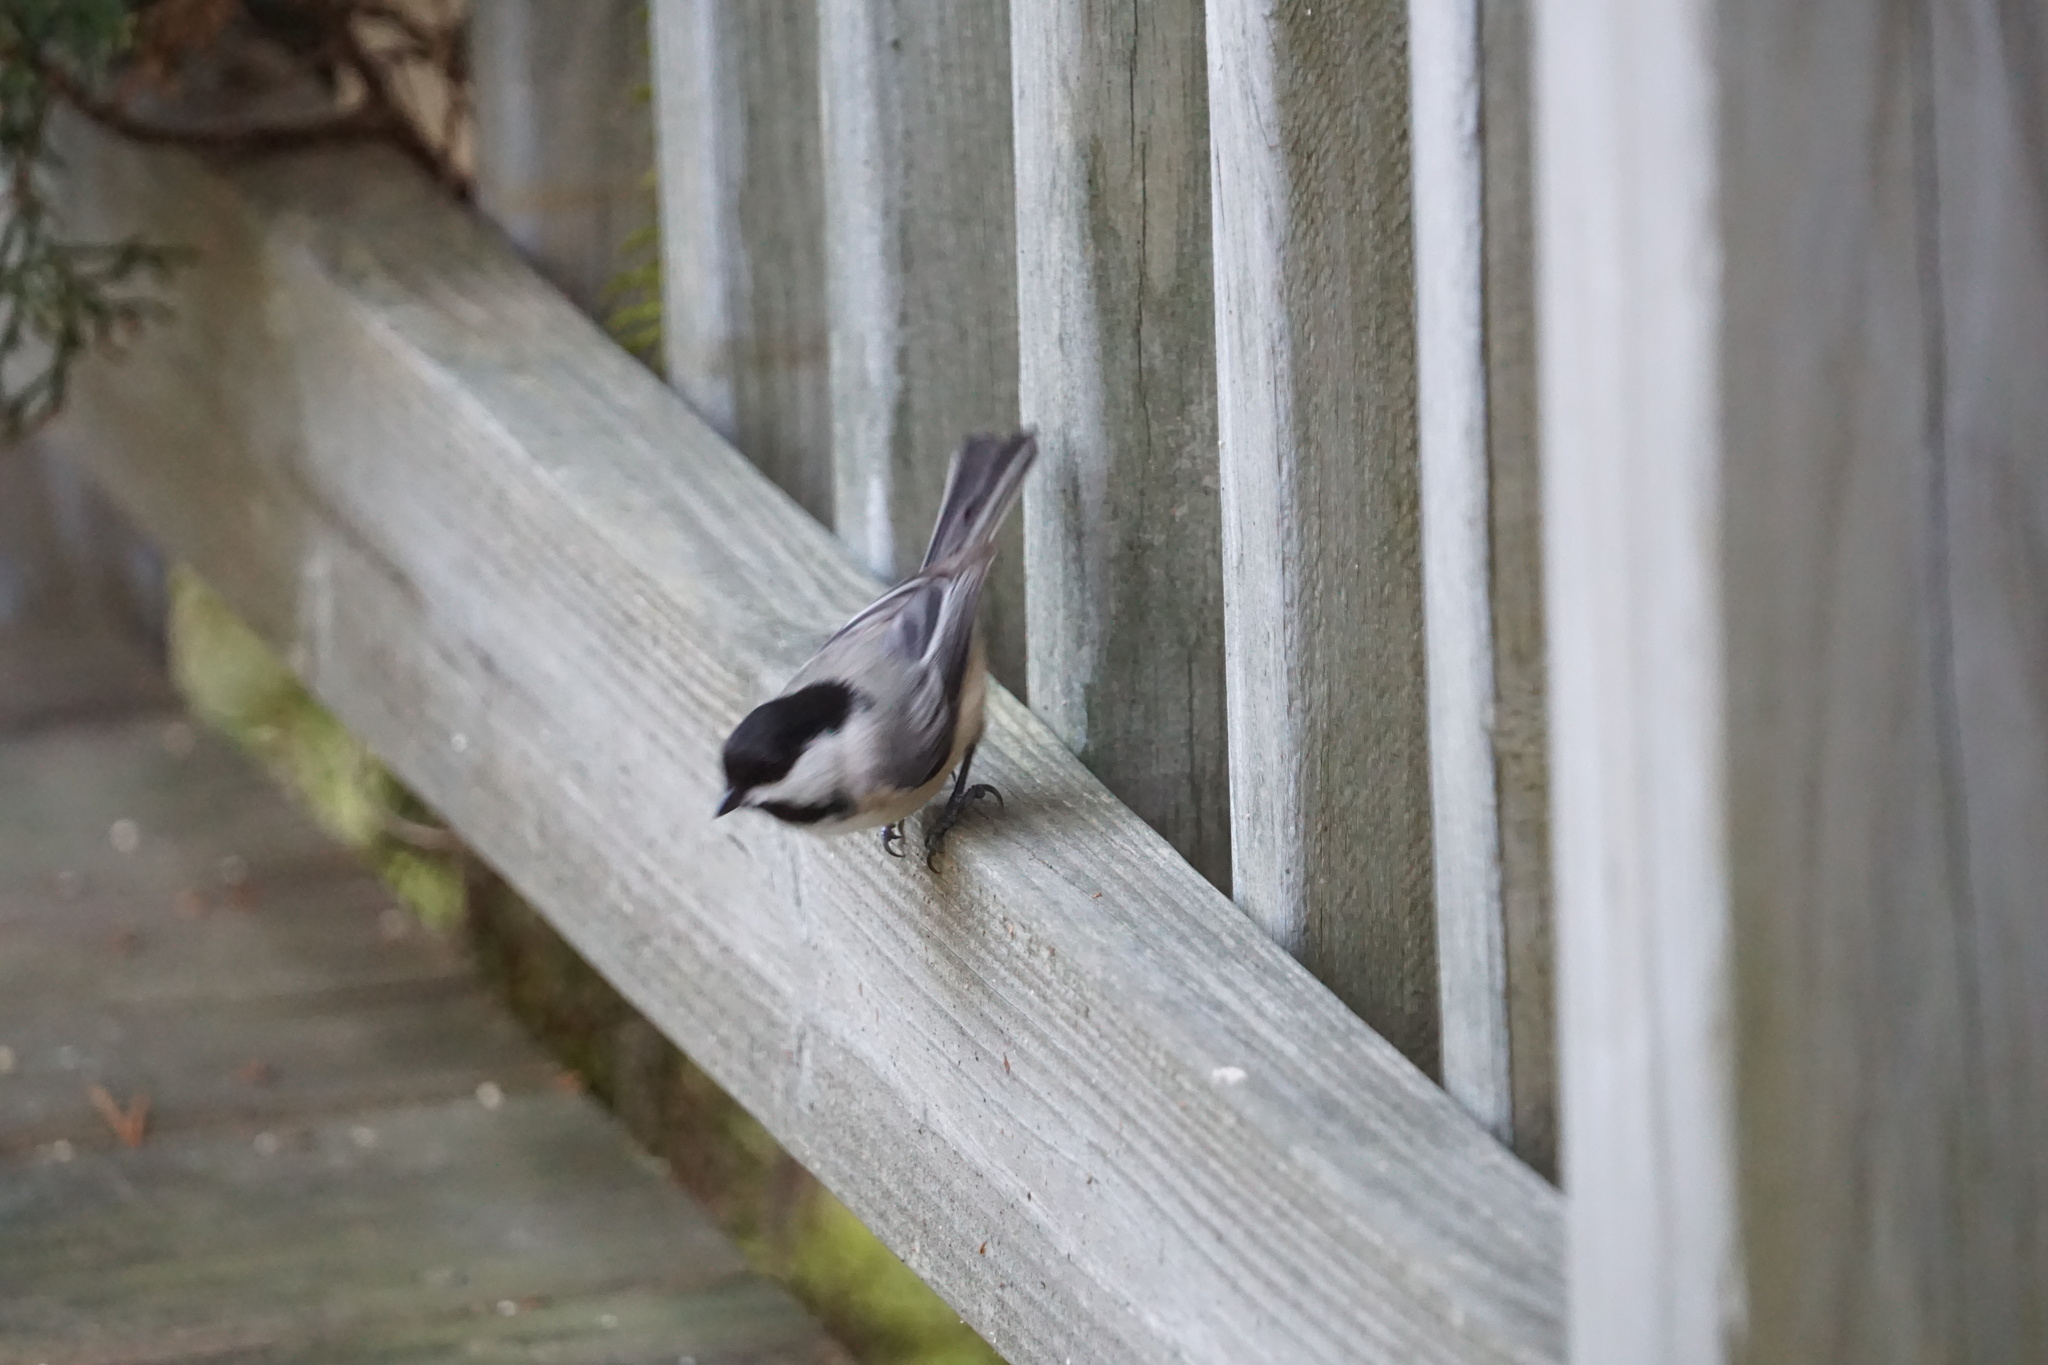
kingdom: Animalia
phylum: Chordata
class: Aves
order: Passeriformes
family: Paridae
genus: Poecile
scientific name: Poecile atricapillus
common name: Black-capped chickadee
